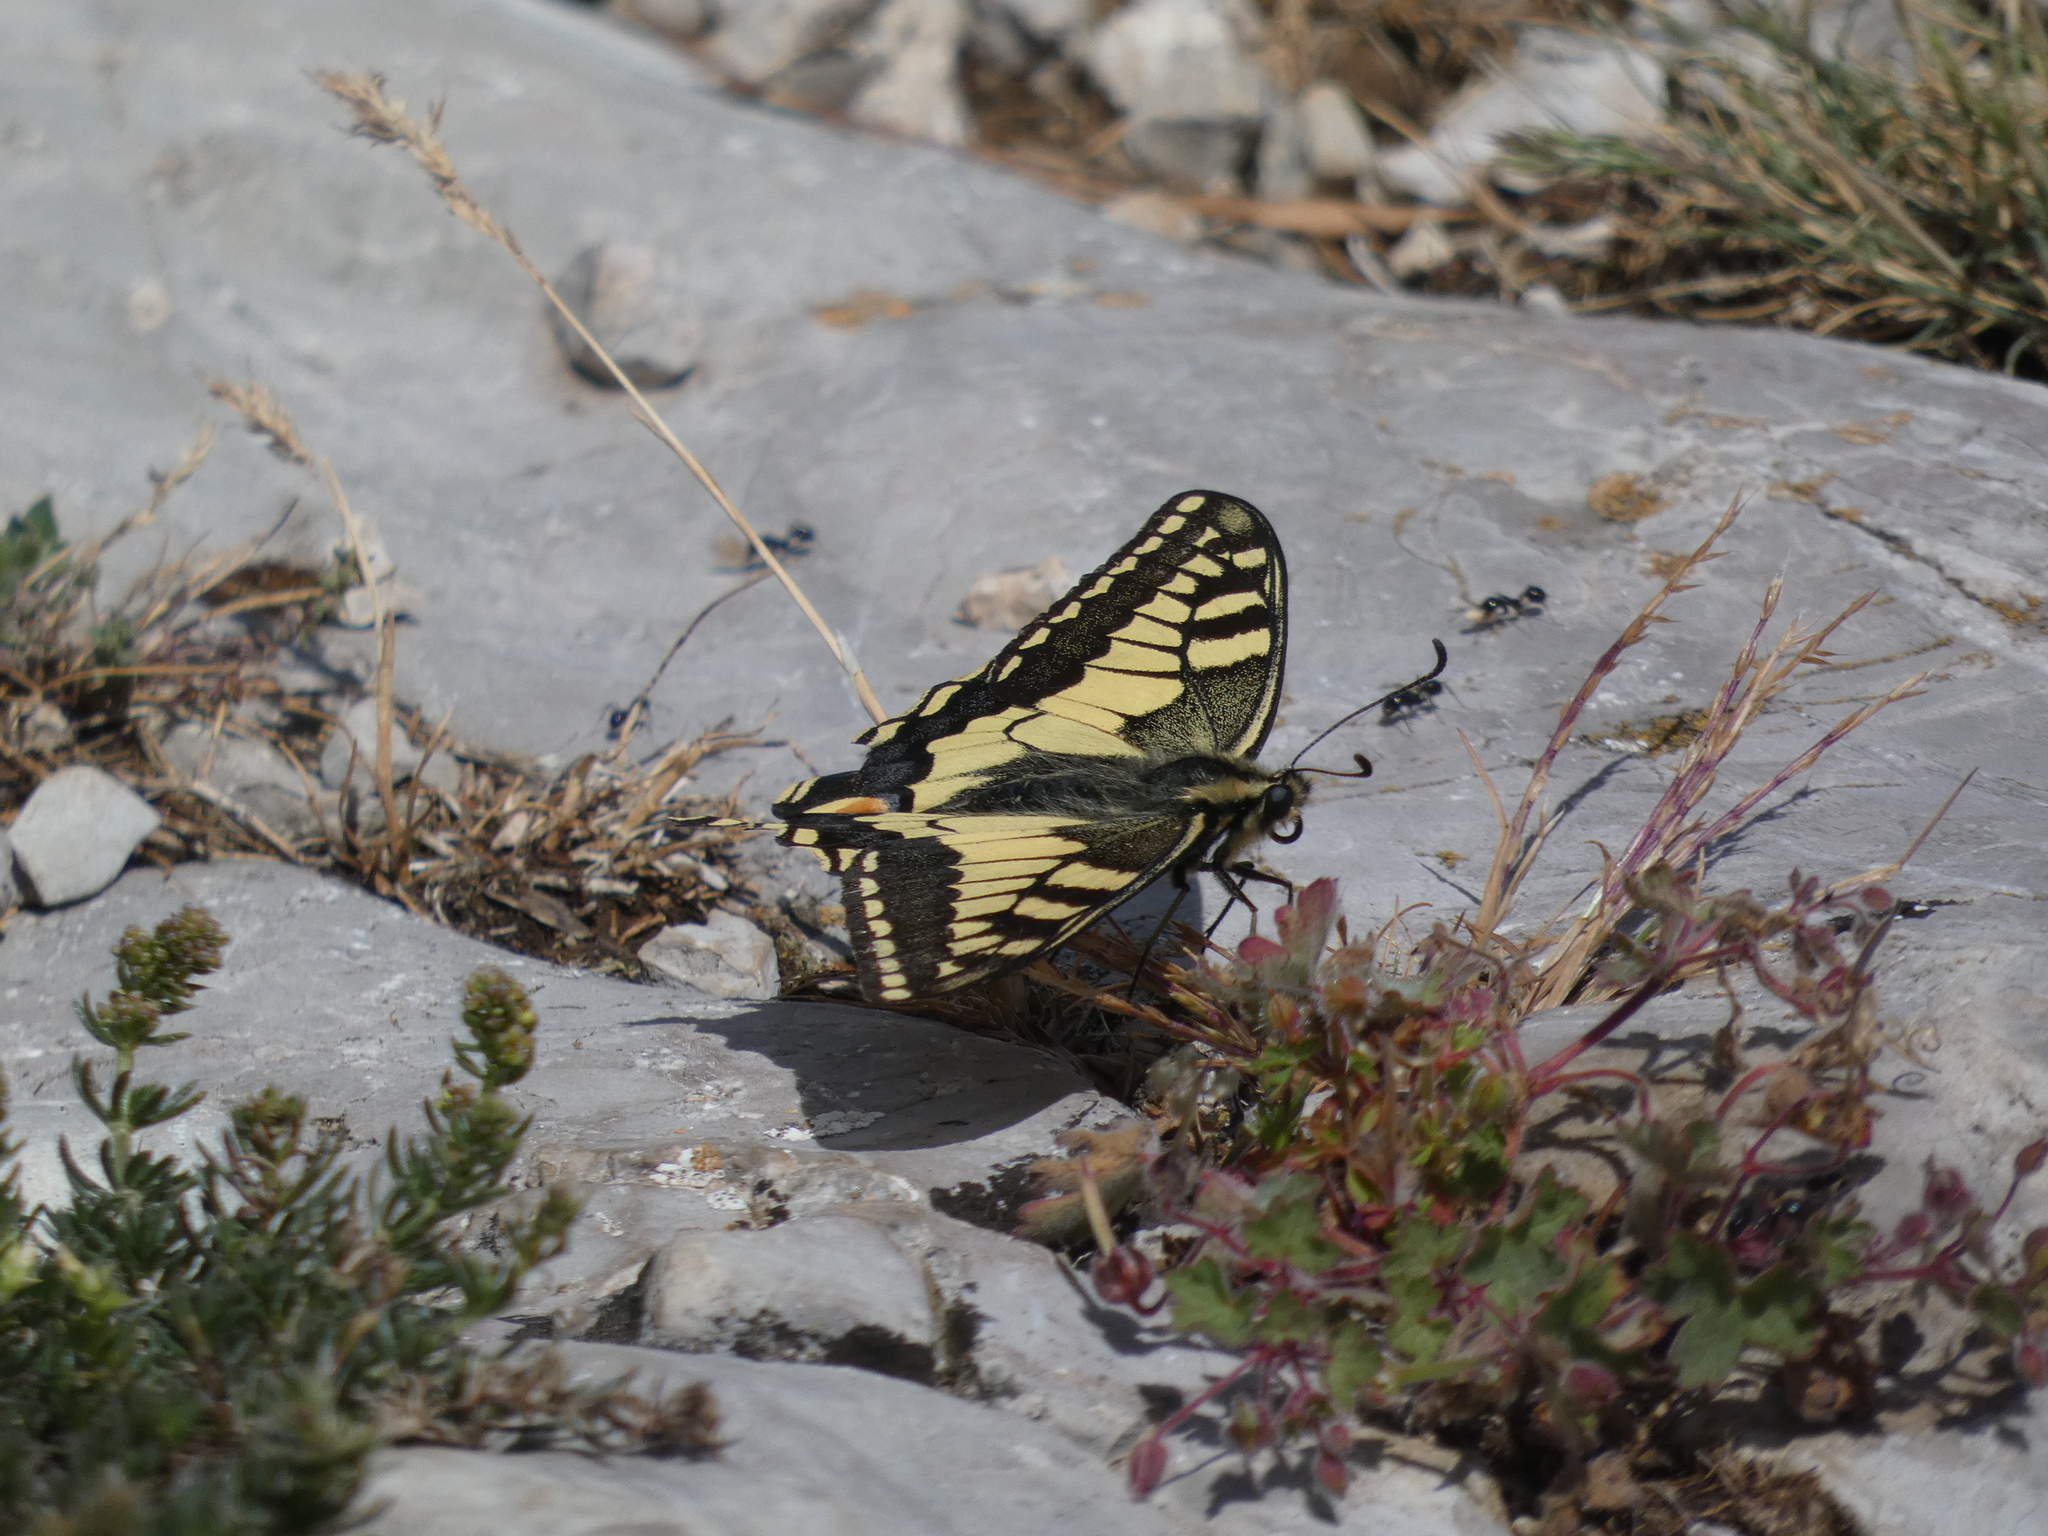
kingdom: Animalia
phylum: Arthropoda
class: Insecta
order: Lepidoptera
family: Papilionidae
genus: Papilio
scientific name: Papilio machaon
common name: Swallowtail
